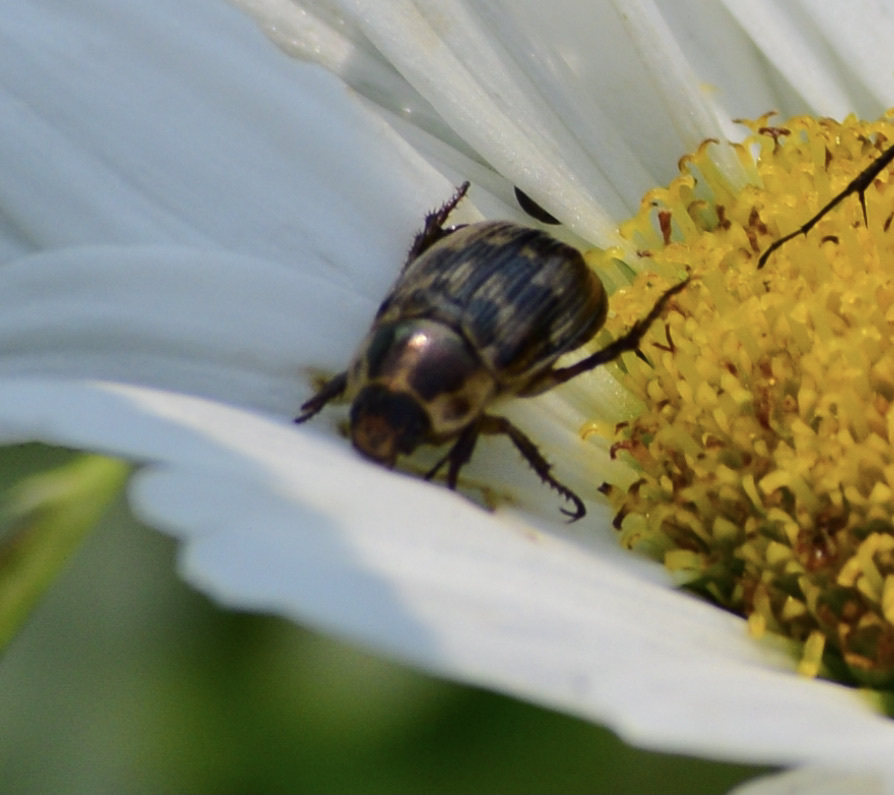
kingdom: Animalia
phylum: Arthropoda
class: Insecta
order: Coleoptera
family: Scarabaeidae
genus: Exomala
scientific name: Exomala orientalis
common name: Oriental beetle
